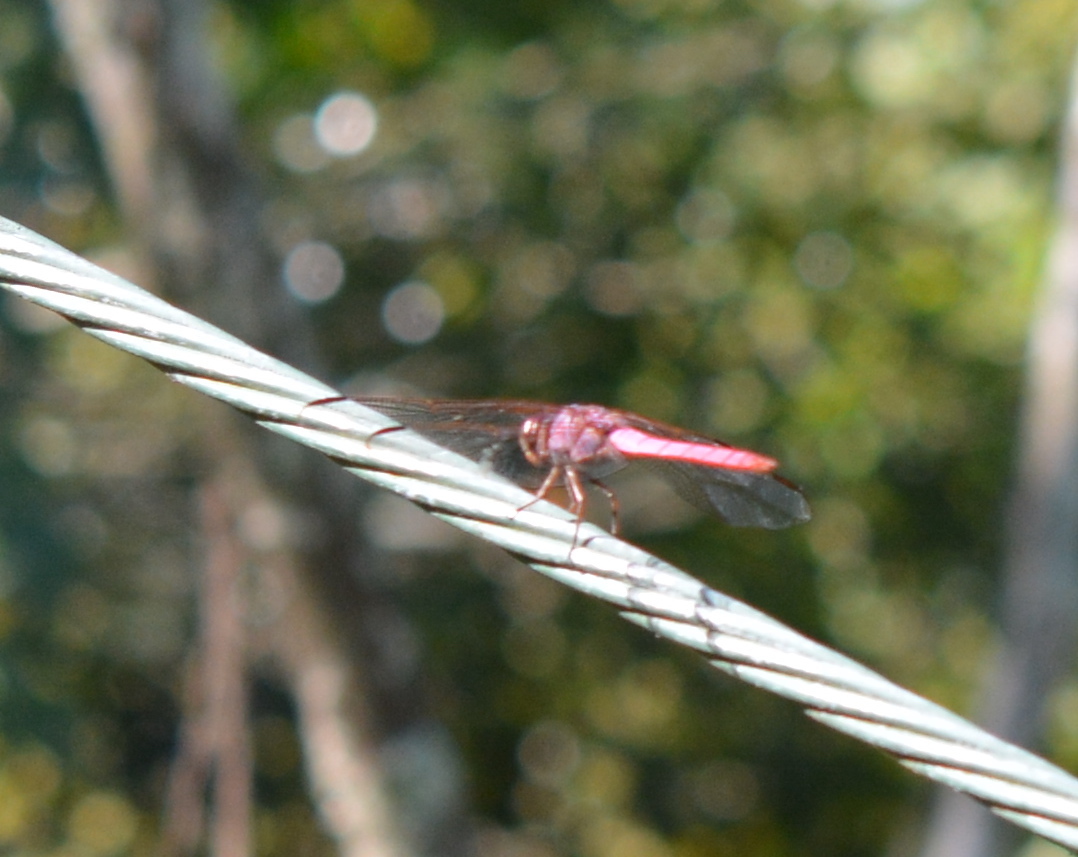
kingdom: Animalia
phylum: Arthropoda
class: Insecta
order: Odonata
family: Libellulidae
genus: Orthemis
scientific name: Orthemis ferruginea
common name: Roseate skimmer
